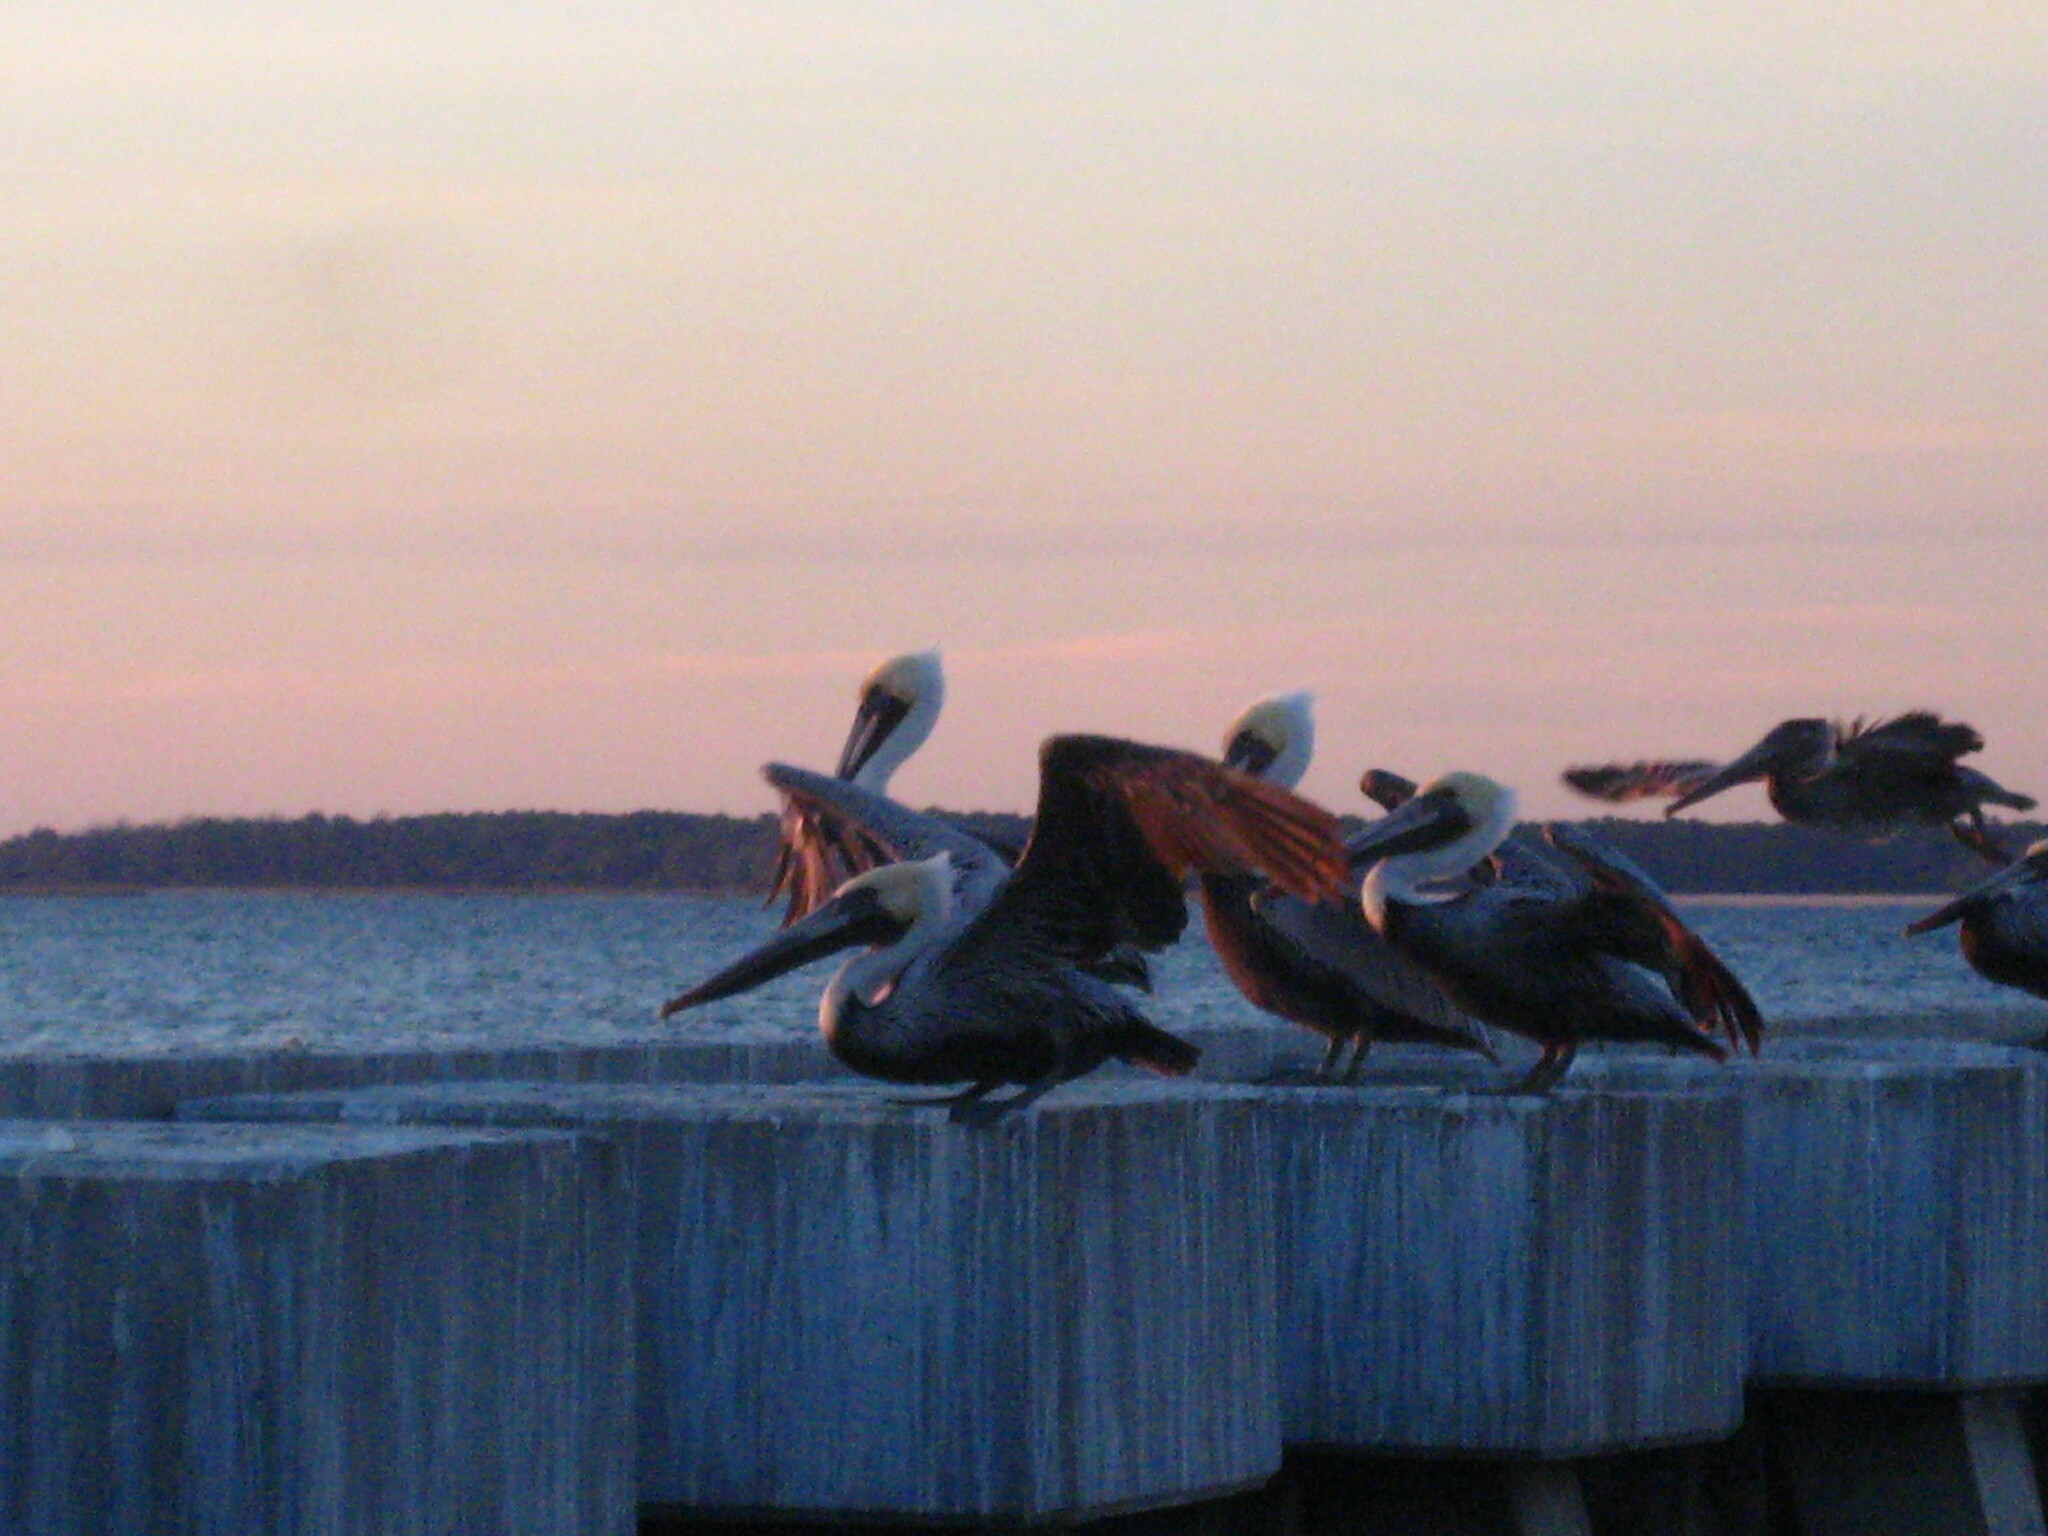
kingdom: Animalia
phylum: Chordata
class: Aves
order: Pelecaniformes
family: Pelecanidae
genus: Pelecanus
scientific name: Pelecanus occidentalis
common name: Brown pelican
